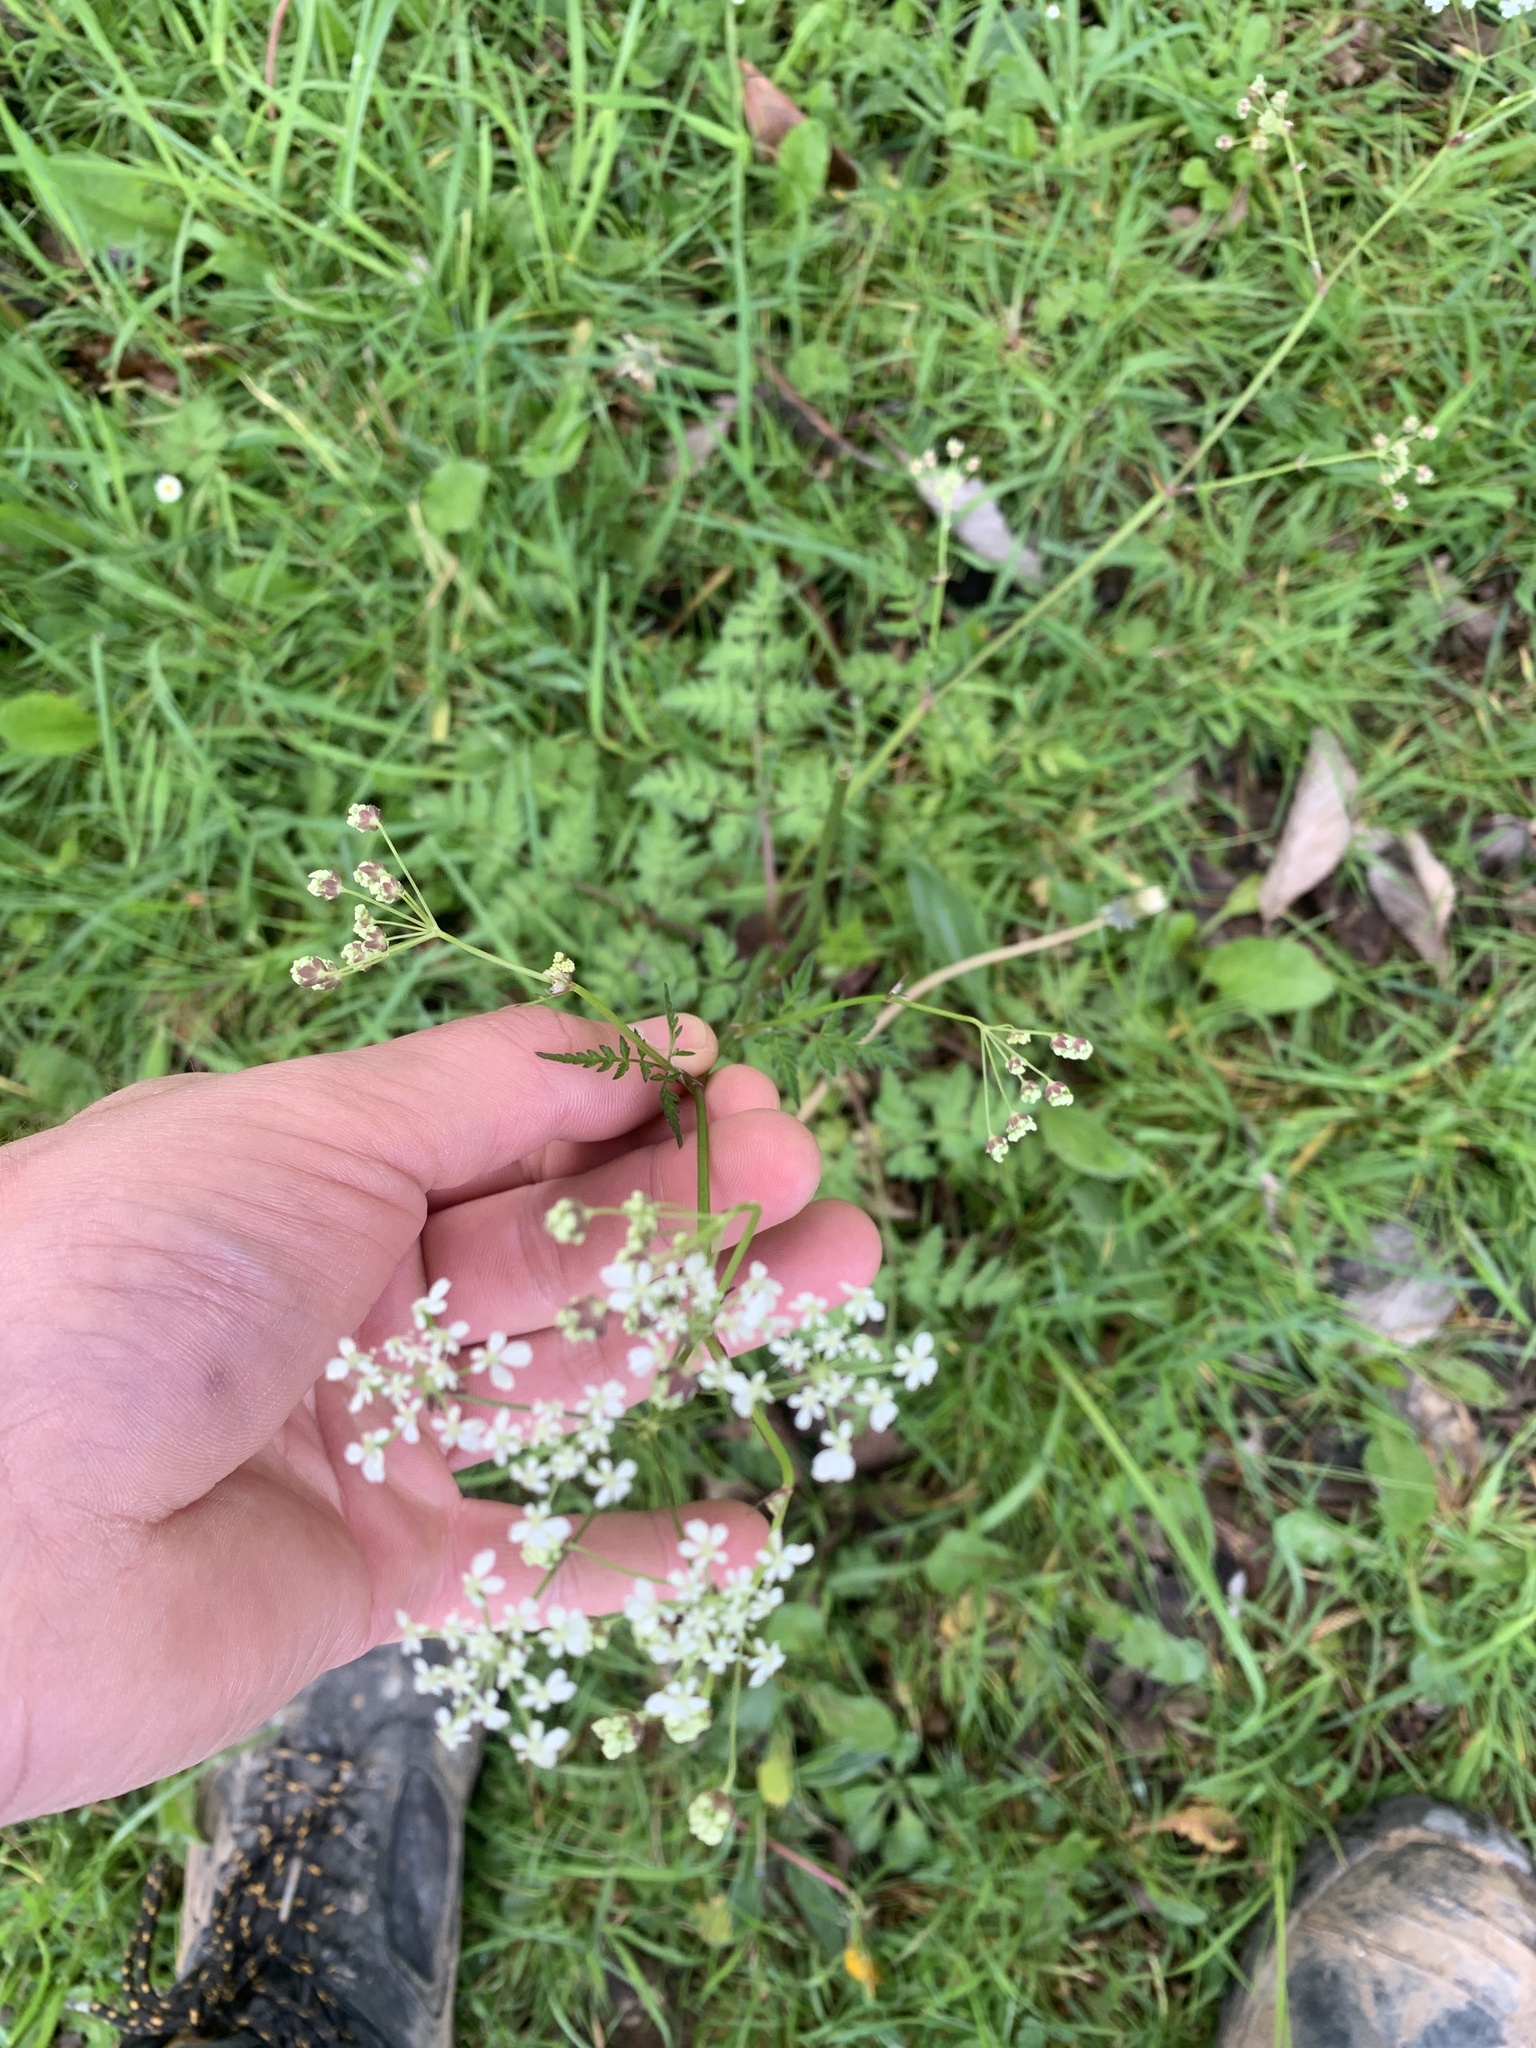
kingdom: Plantae
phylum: Tracheophyta
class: Magnoliopsida
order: Apiales
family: Apiaceae
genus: Anthriscus
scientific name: Anthriscus sylvestris
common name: Cow parsley
